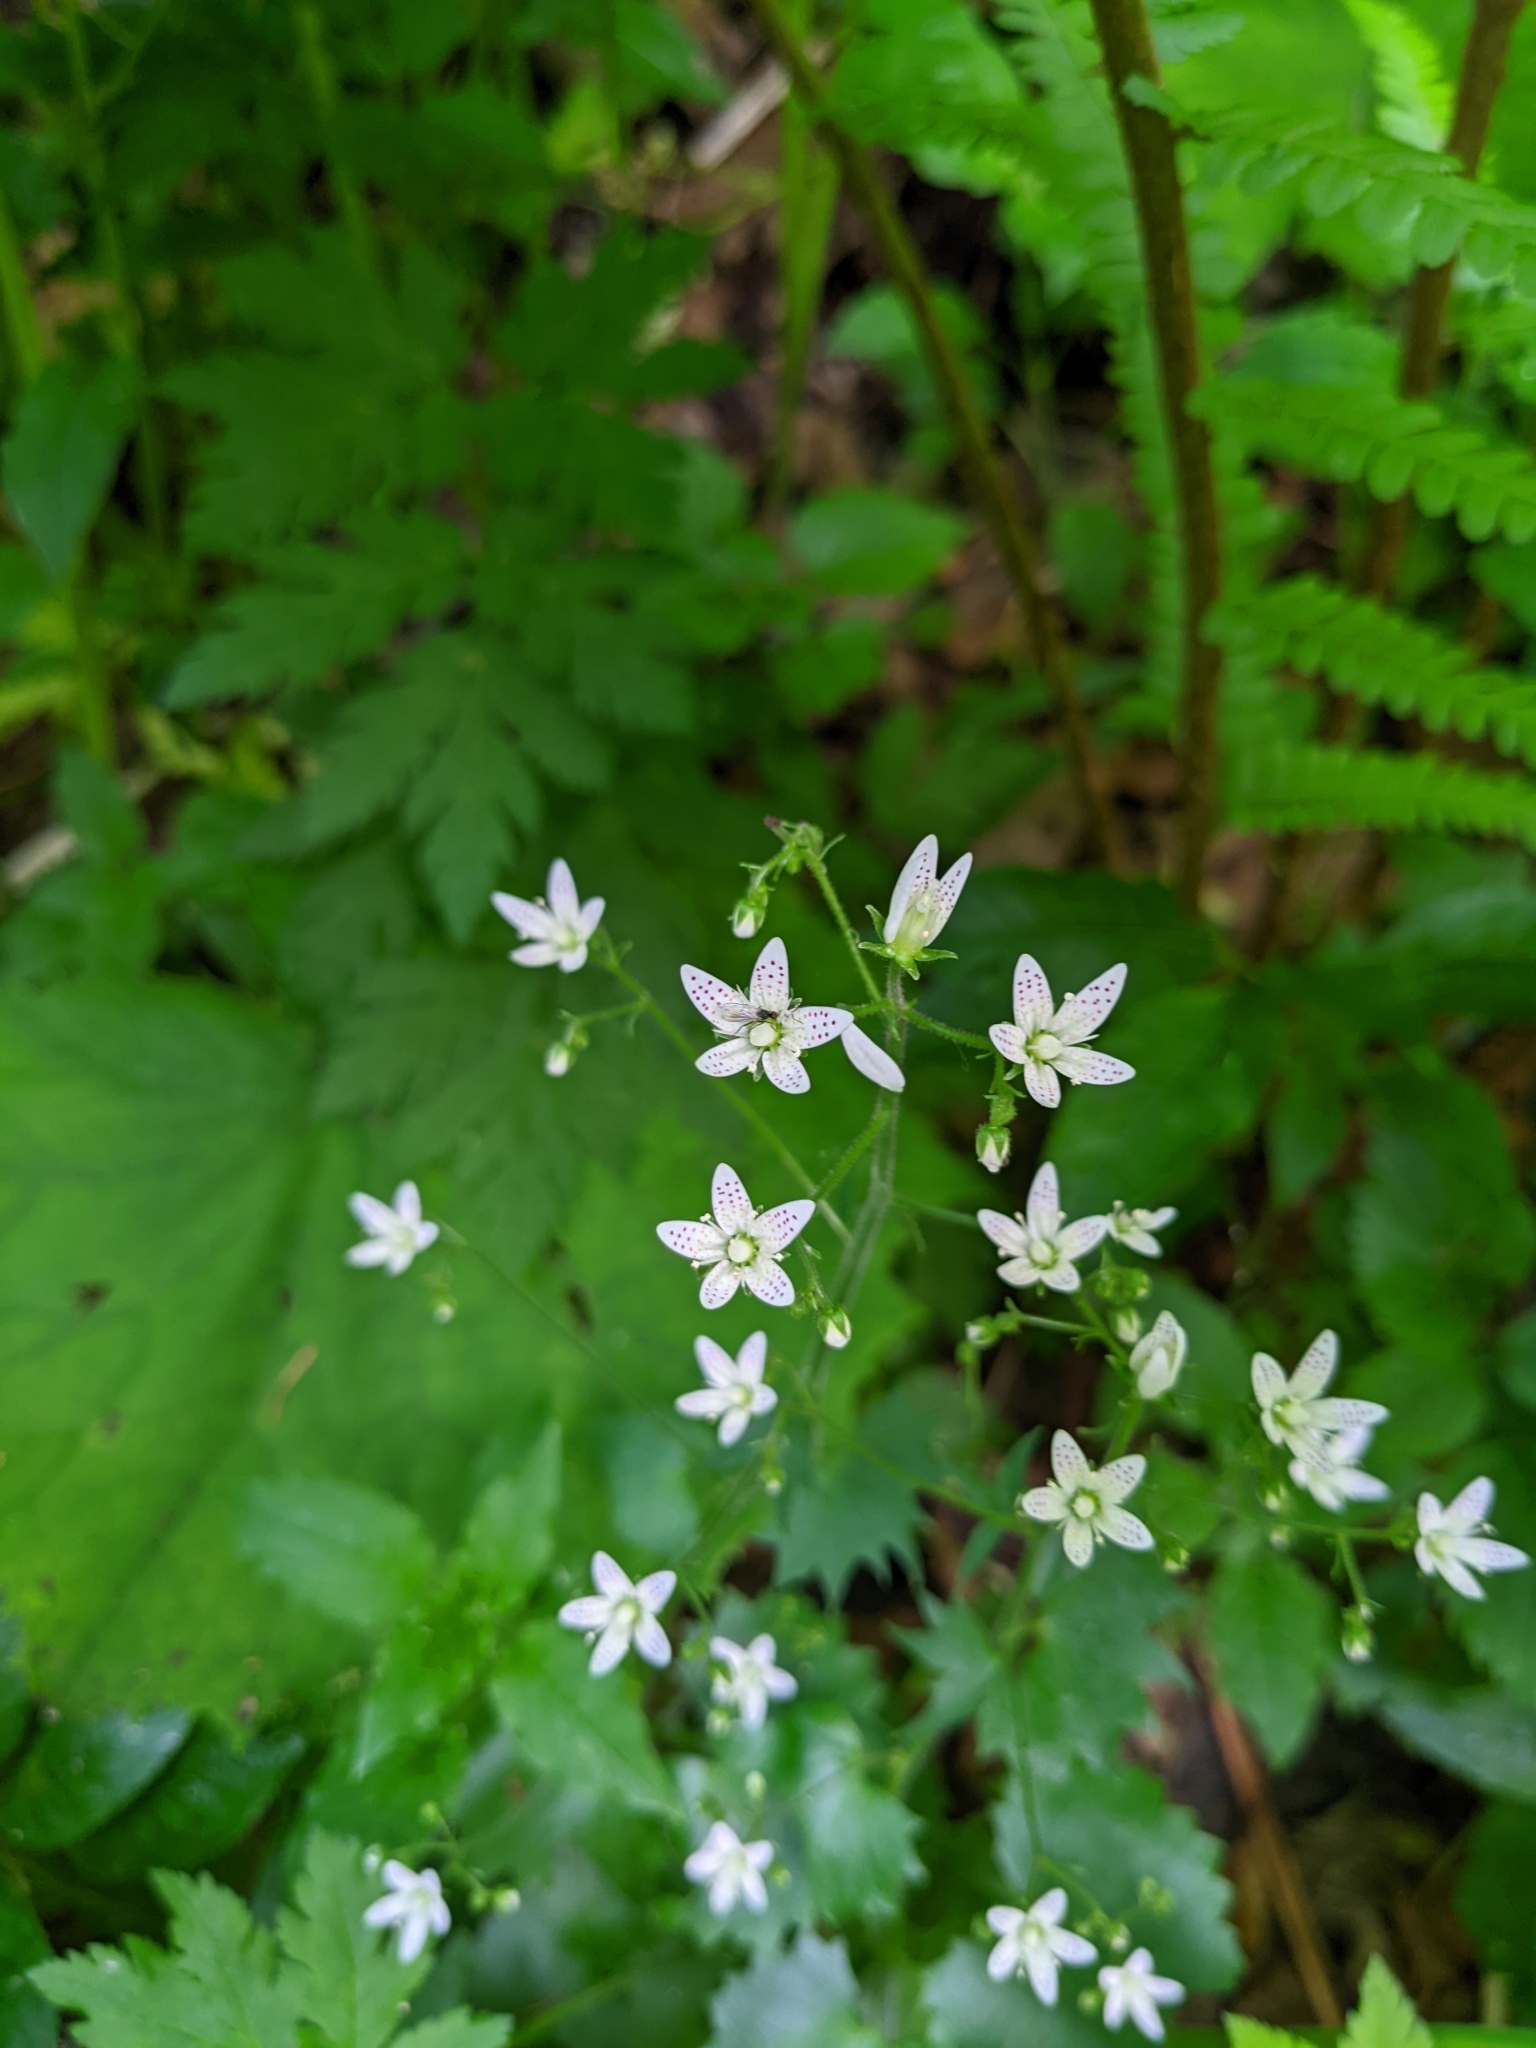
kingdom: Plantae
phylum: Tracheophyta
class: Magnoliopsida
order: Saxifragales
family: Saxifragaceae
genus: Saxifraga
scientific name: Saxifraga rotundifolia
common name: Round-leaved saxifrage
